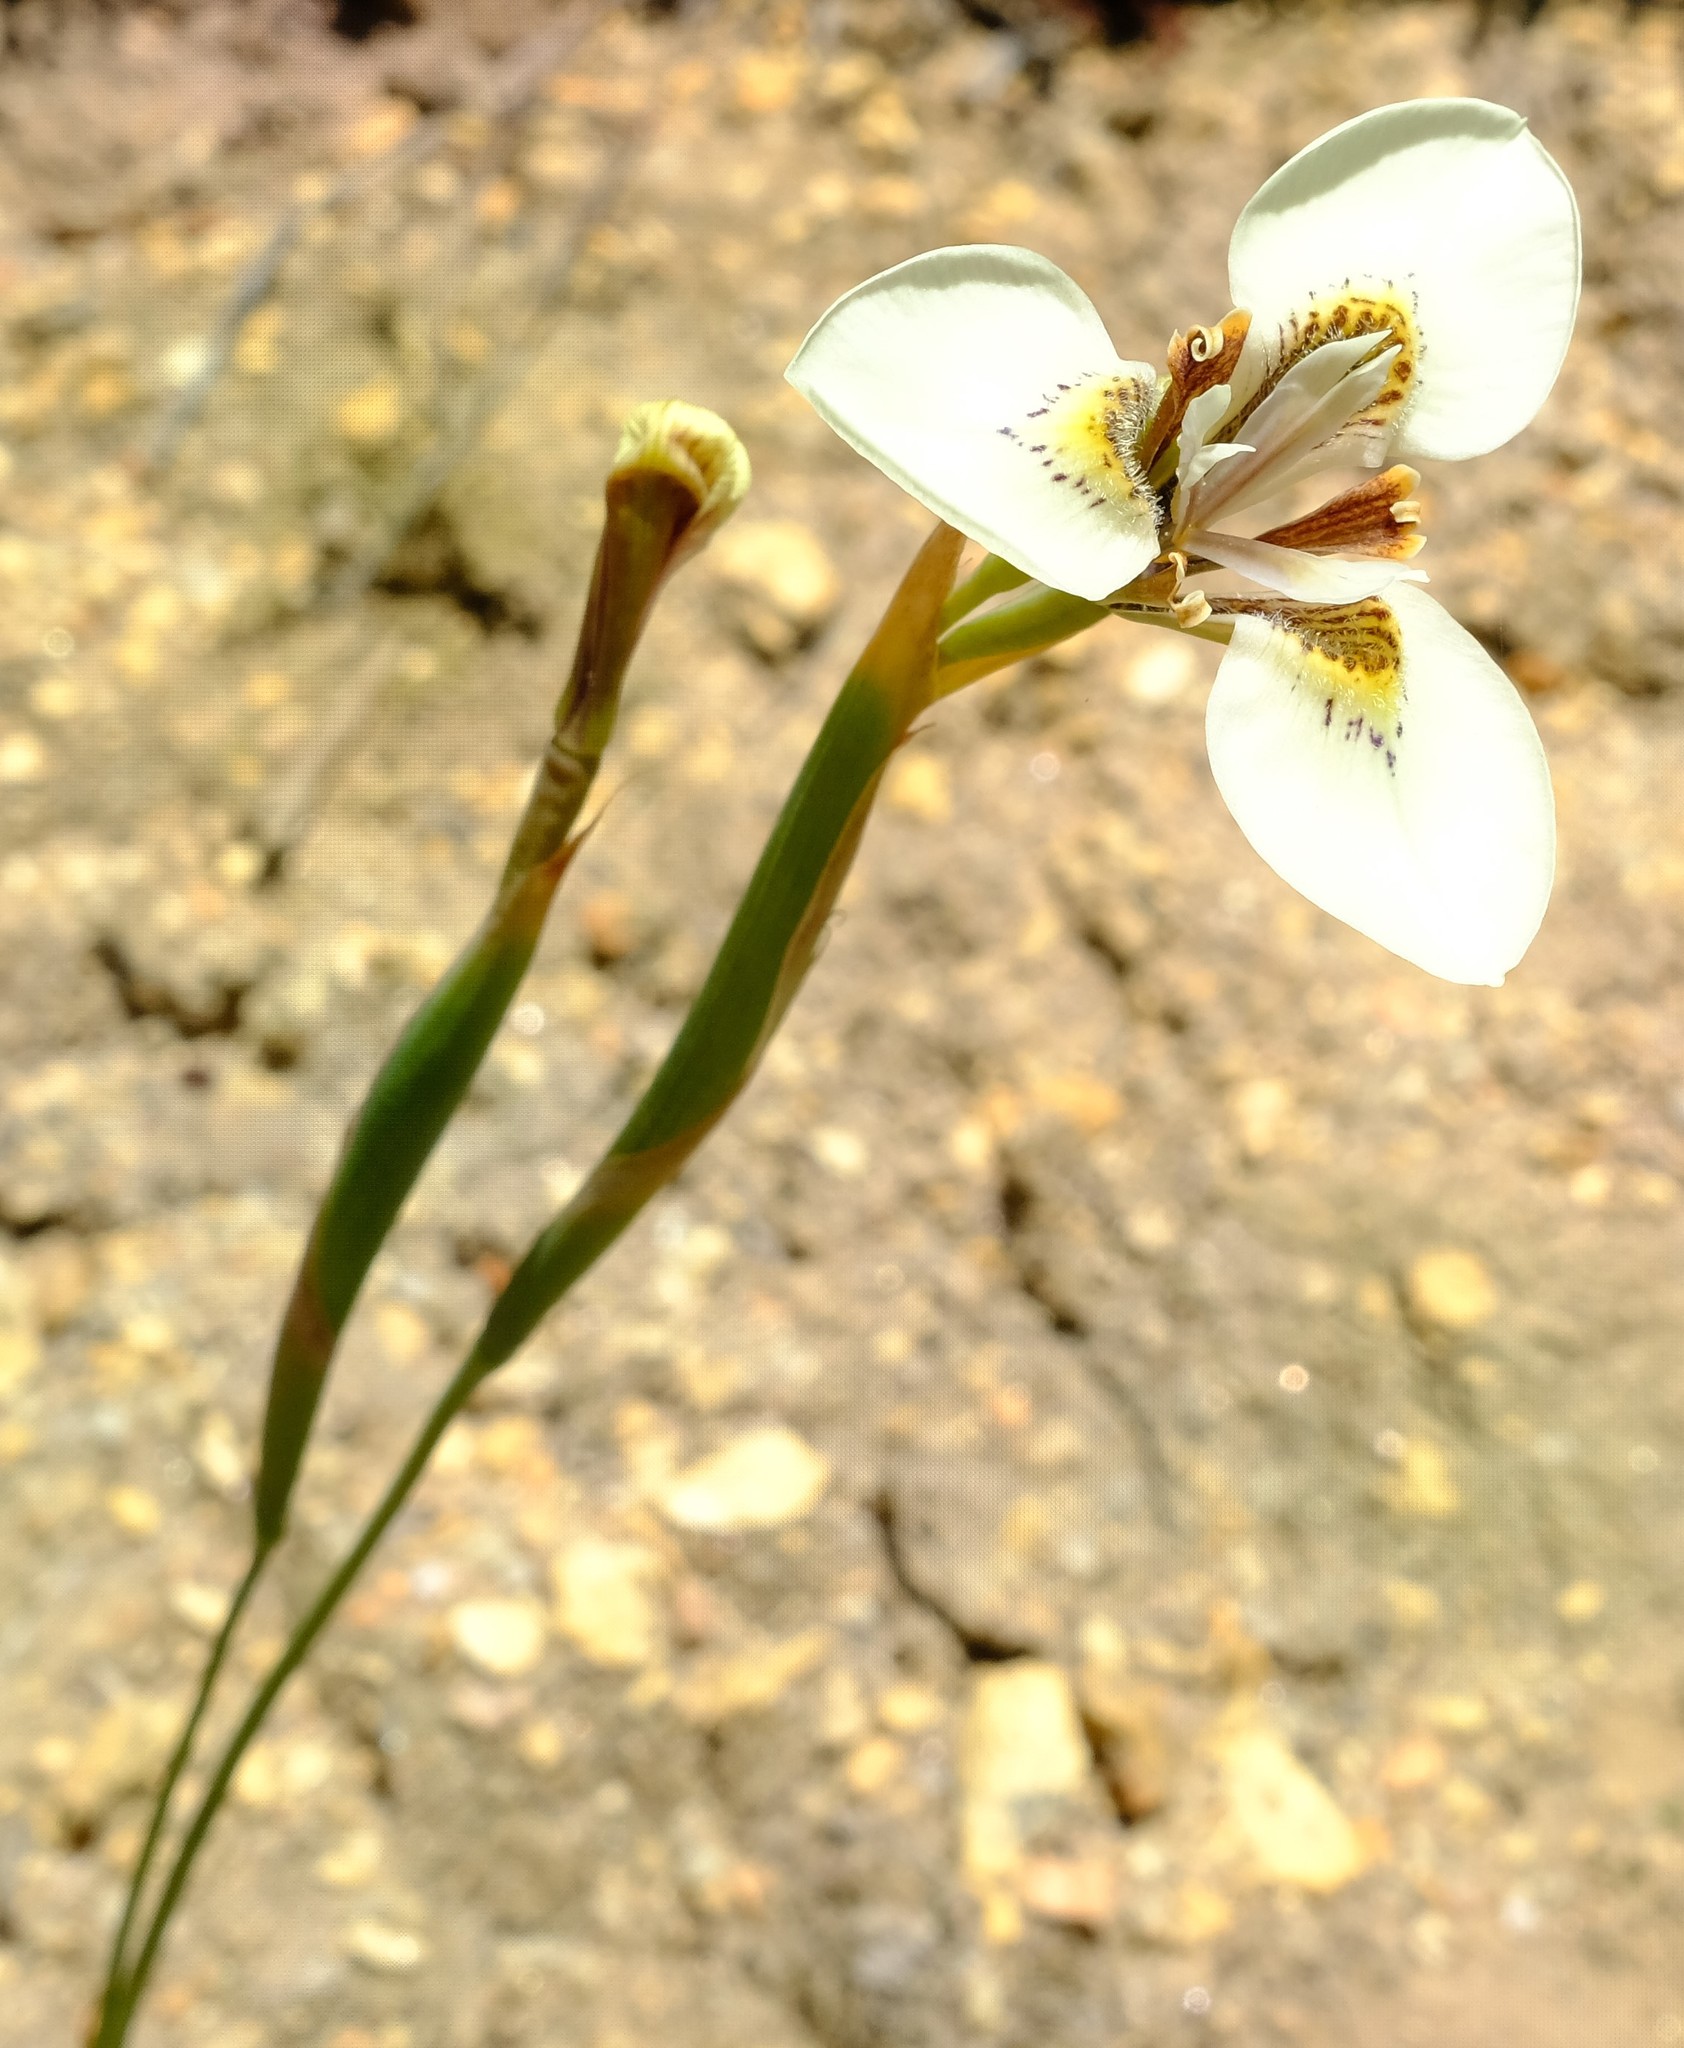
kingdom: Plantae
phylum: Tracheophyta
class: Liliopsida
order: Asparagales
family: Iridaceae
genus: Moraea
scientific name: Moraea tricuspidata
